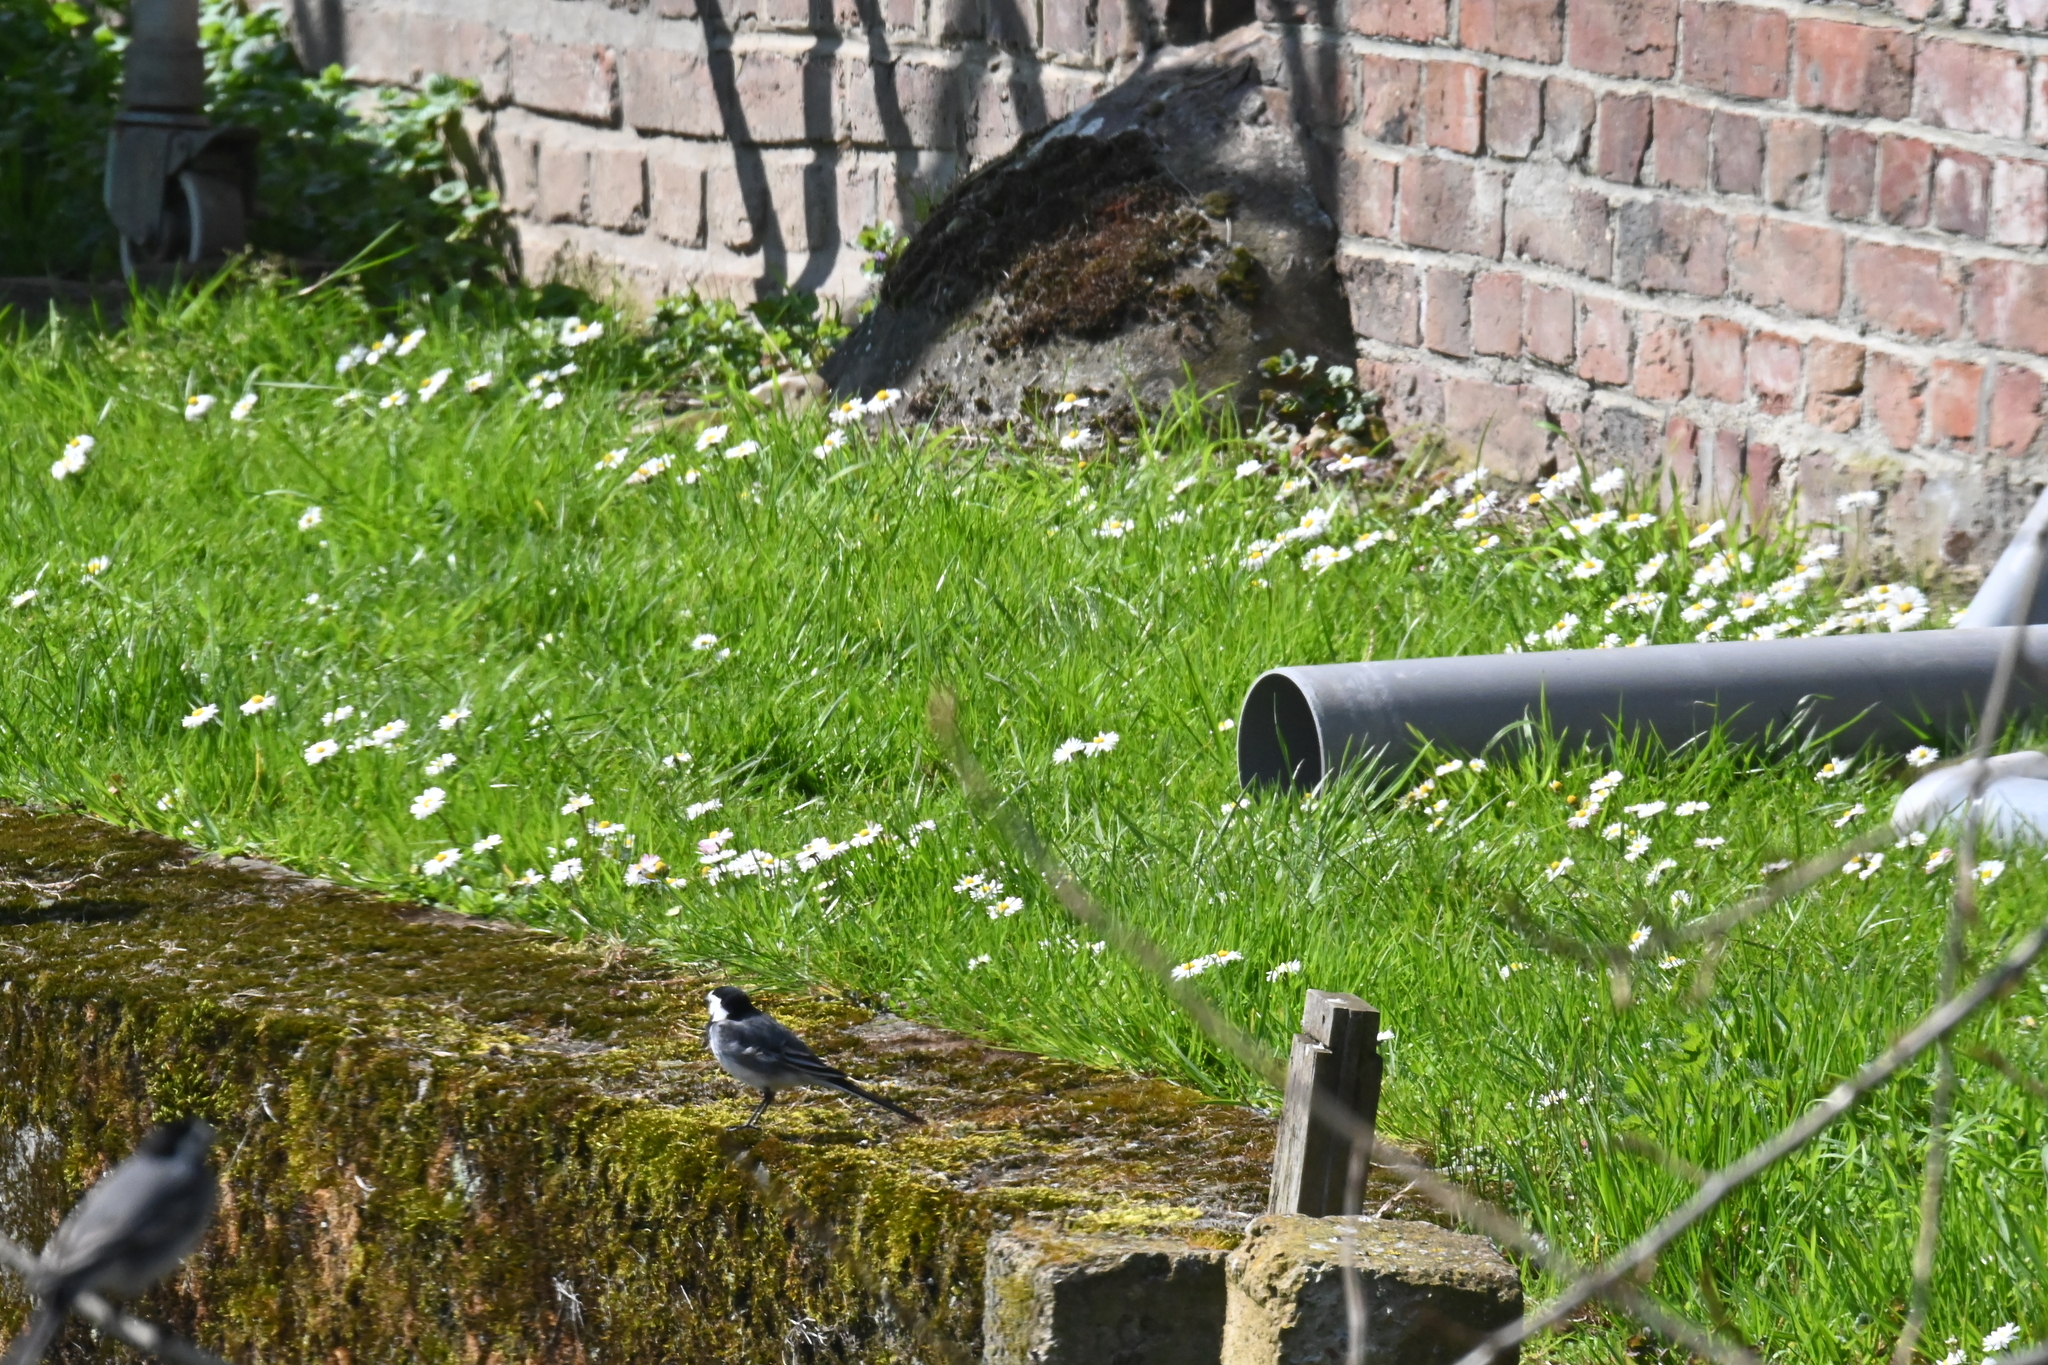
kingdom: Animalia
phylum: Chordata
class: Aves
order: Passeriformes
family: Motacillidae
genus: Motacilla
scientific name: Motacilla alba
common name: White wagtail
